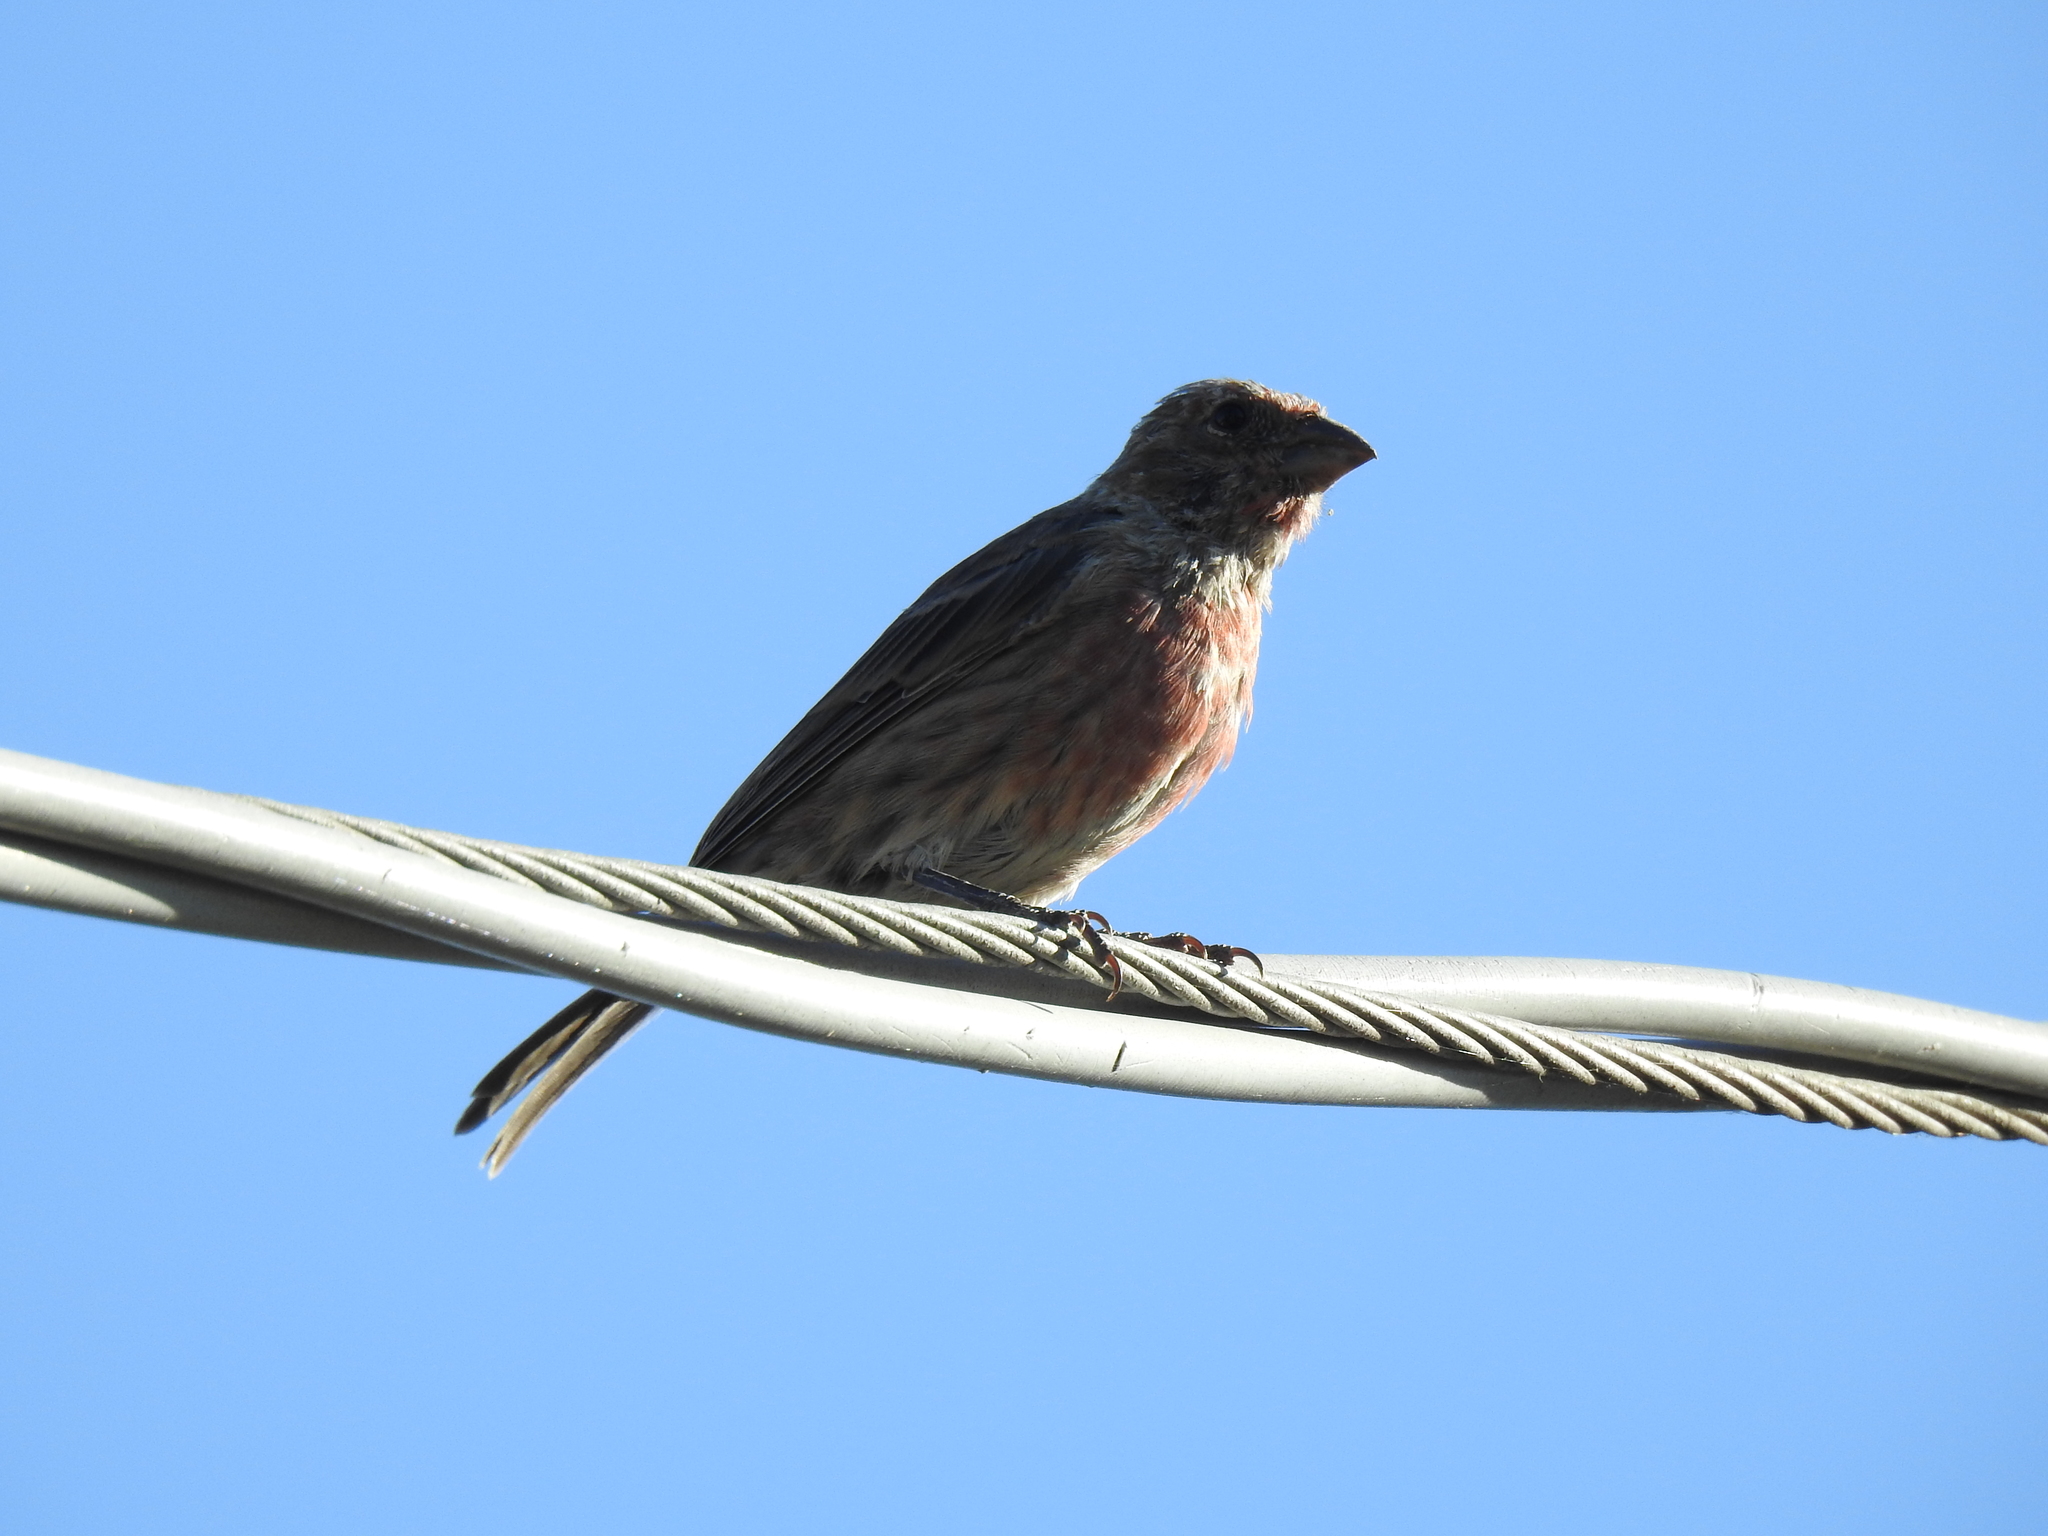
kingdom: Animalia
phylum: Chordata
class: Aves
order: Passeriformes
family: Fringillidae
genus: Haemorhous
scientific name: Haemorhous mexicanus
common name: House finch
